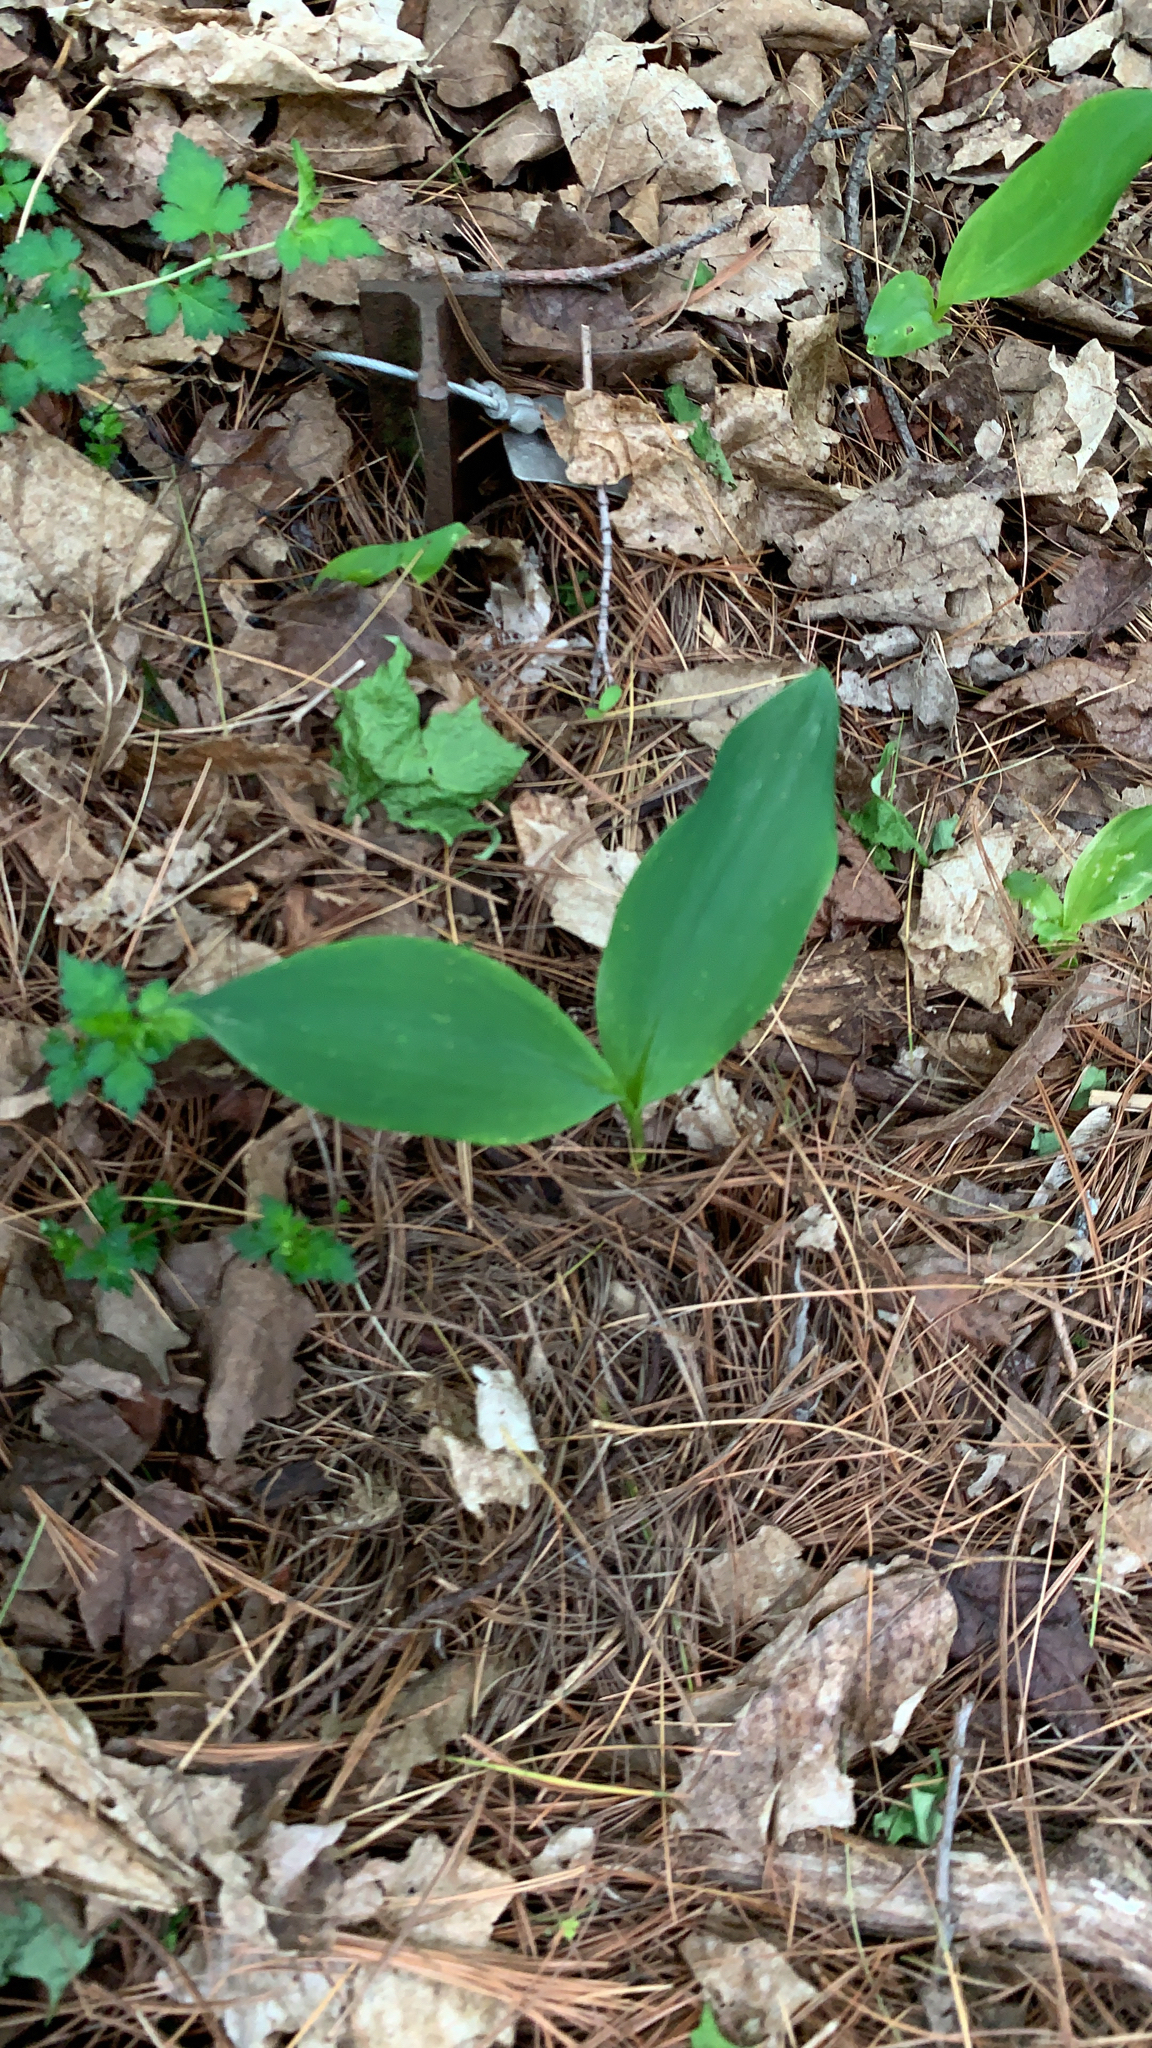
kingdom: Plantae
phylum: Tracheophyta
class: Liliopsida
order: Asparagales
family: Asparagaceae
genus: Convallaria
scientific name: Convallaria majalis
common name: Lily-of-the-valley
